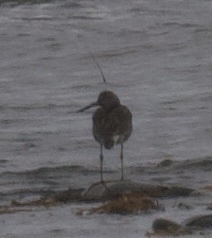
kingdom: Animalia
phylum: Chordata
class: Aves
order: Charadriiformes
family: Scolopacidae
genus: Tringa
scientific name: Tringa semipalmata
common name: Willet
